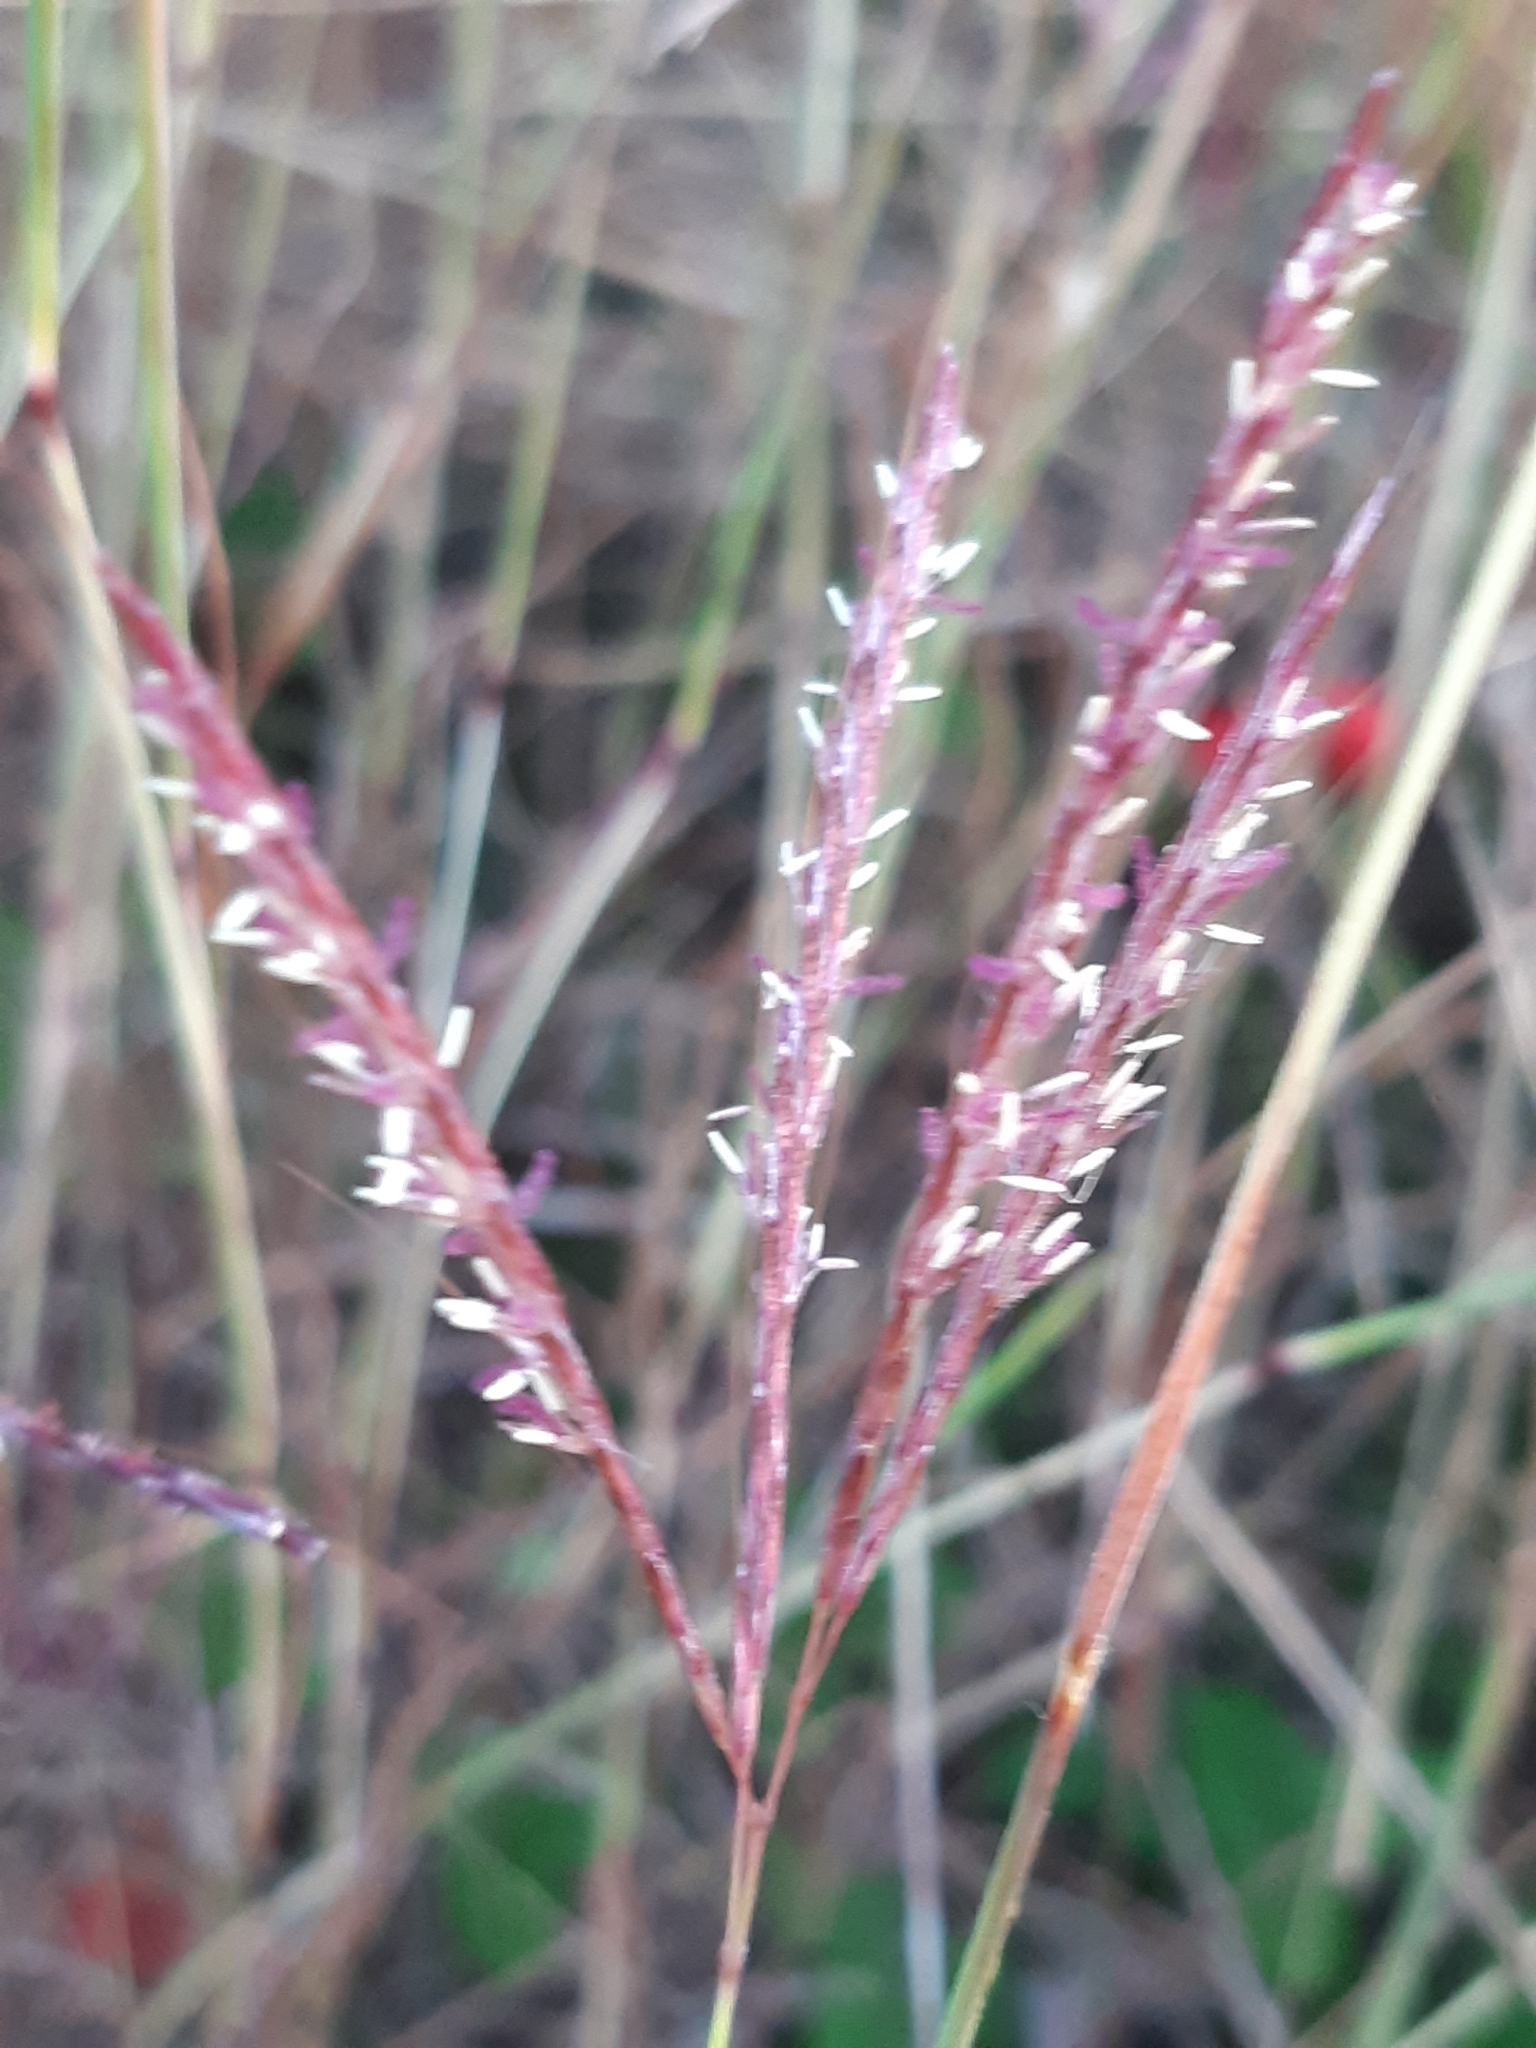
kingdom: Plantae
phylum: Tracheophyta
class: Liliopsida
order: Poales
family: Poaceae
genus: Bothriochloa
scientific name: Bothriochloa ischaemum
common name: Yellow bluestem
